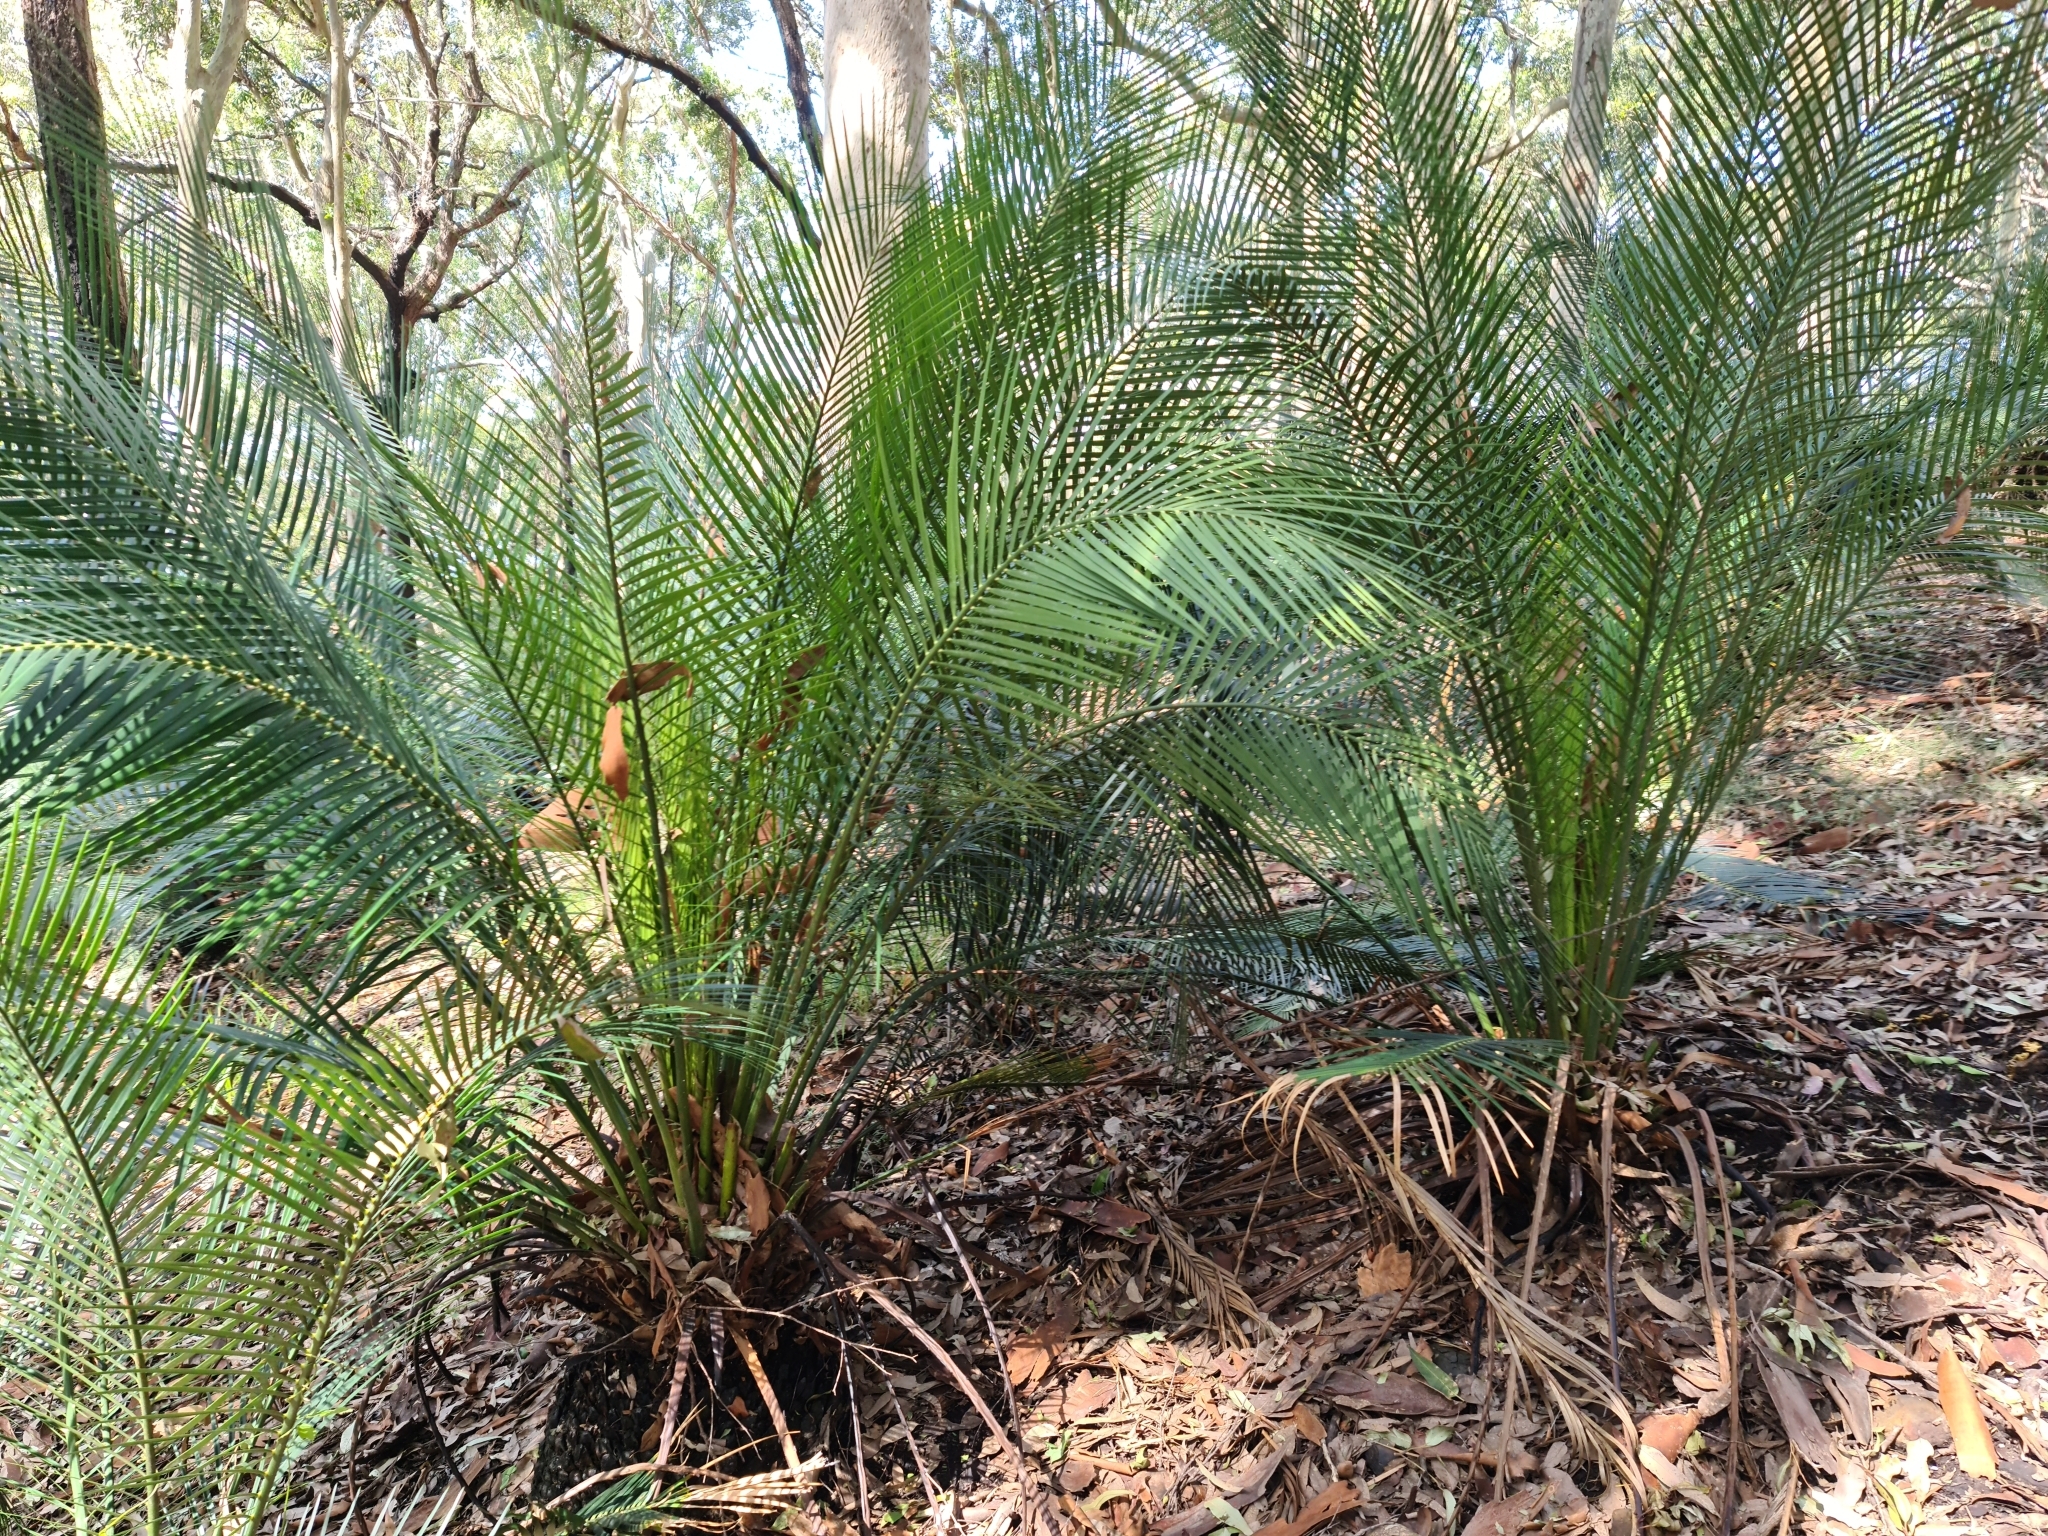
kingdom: Plantae
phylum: Tracheophyta
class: Cycadopsida
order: Cycadales
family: Zamiaceae
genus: Macrozamia
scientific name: Macrozamia communis
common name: Burrawong
